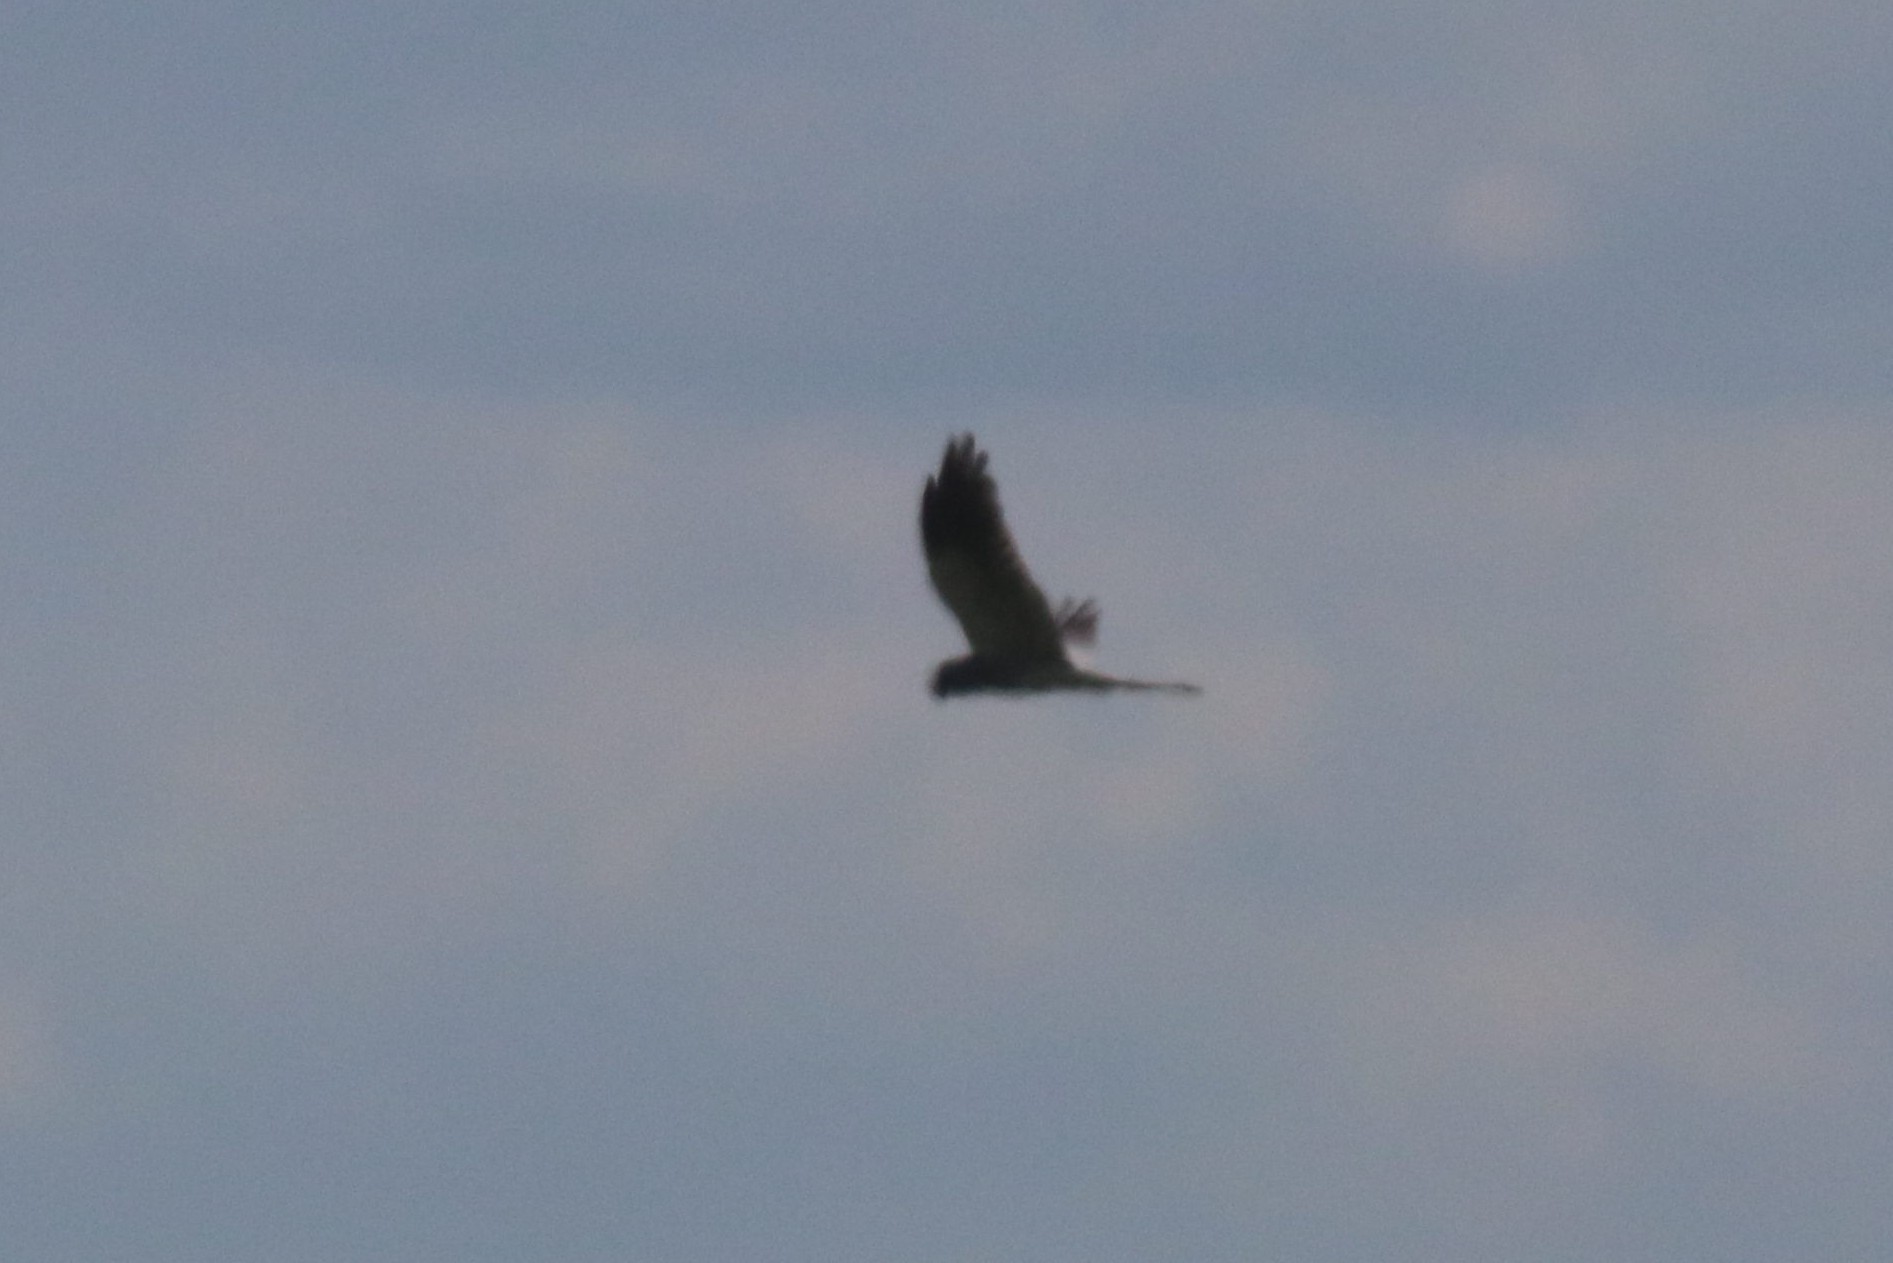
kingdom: Animalia
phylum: Chordata
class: Aves
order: Accipitriformes
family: Accipitridae
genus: Circus
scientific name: Circus pygargus
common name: Montagu's harrier
